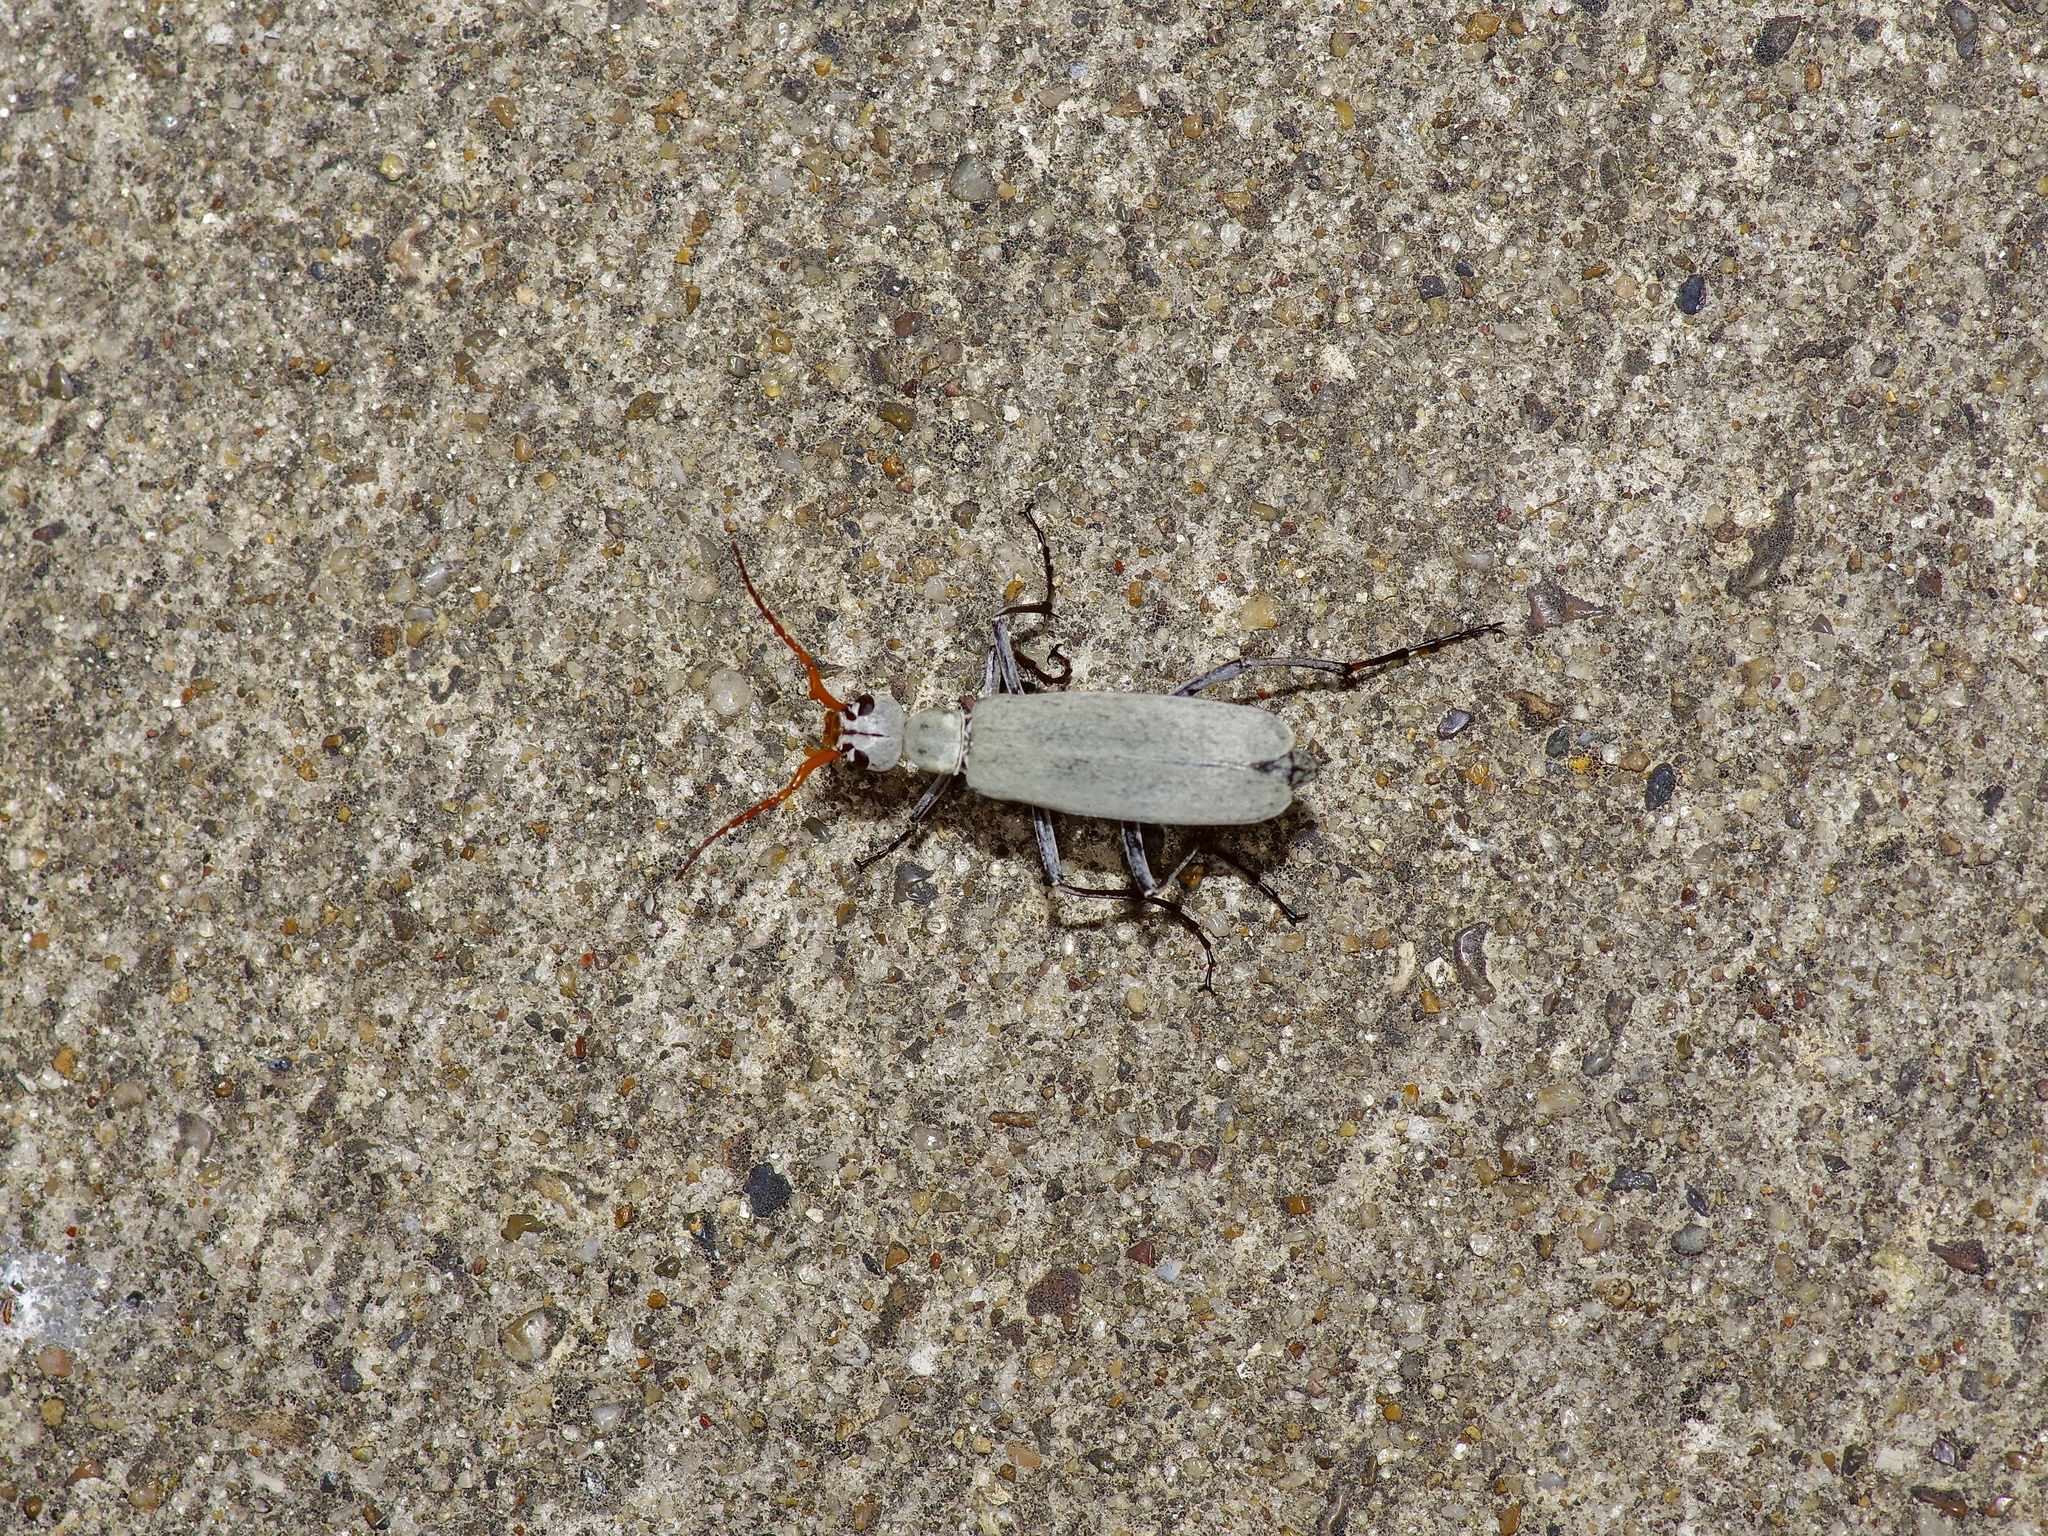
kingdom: Animalia
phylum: Arthropoda
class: Insecta
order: Coleoptera
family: Meloidae
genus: Epicauta
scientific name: Epicauta albida
